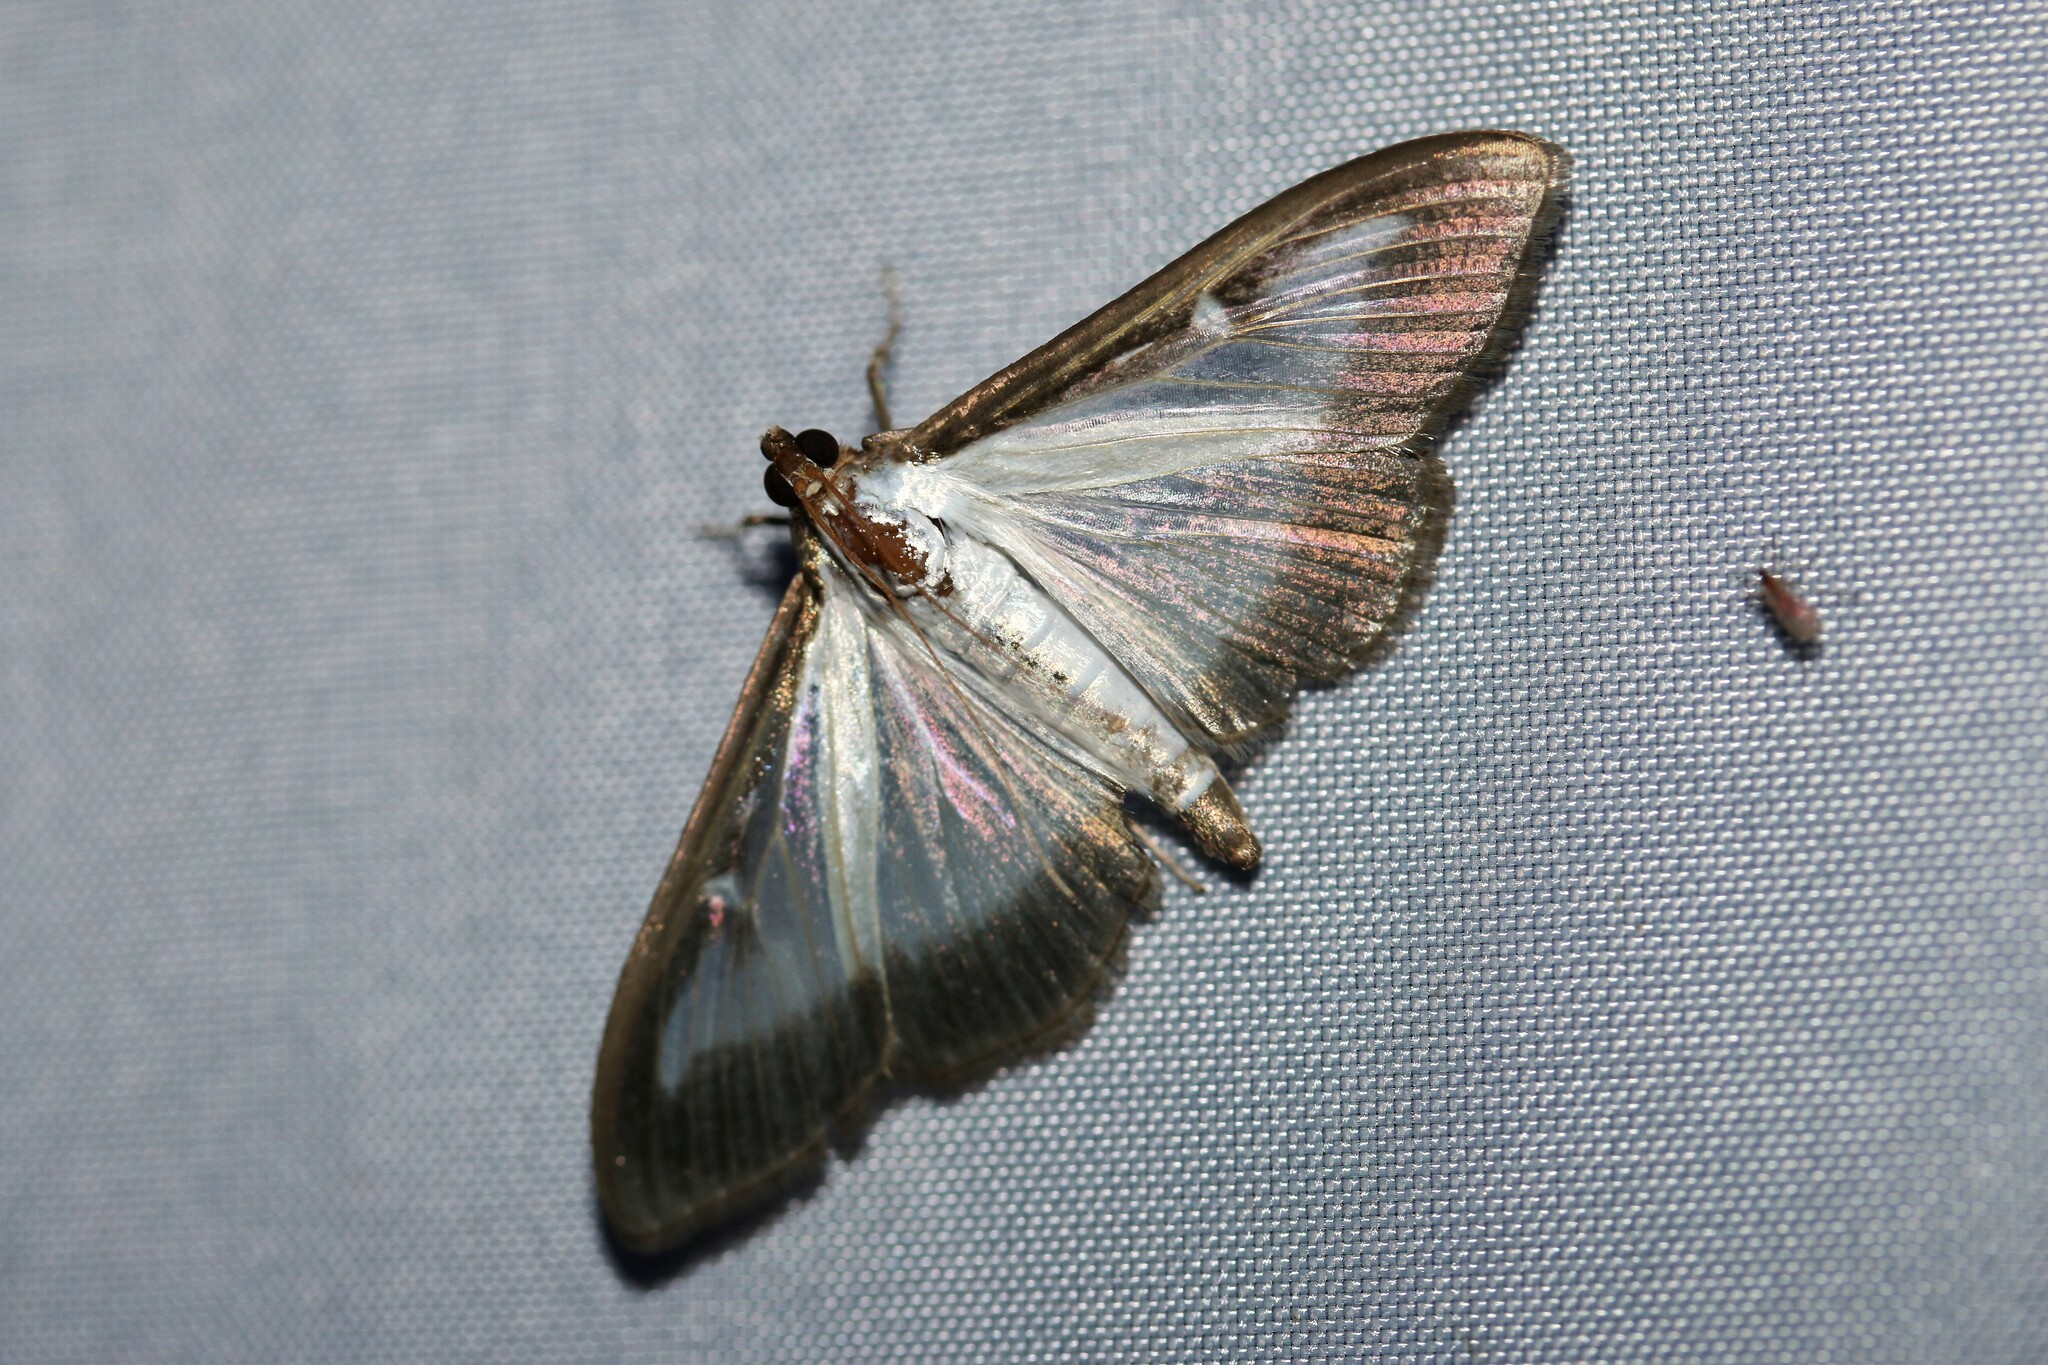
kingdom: Animalia
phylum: Arthropoda
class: Insecta
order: Lepidoptera
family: Crambidae
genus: Cydalima
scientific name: Cydalima perspectalis
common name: Box tree moth
